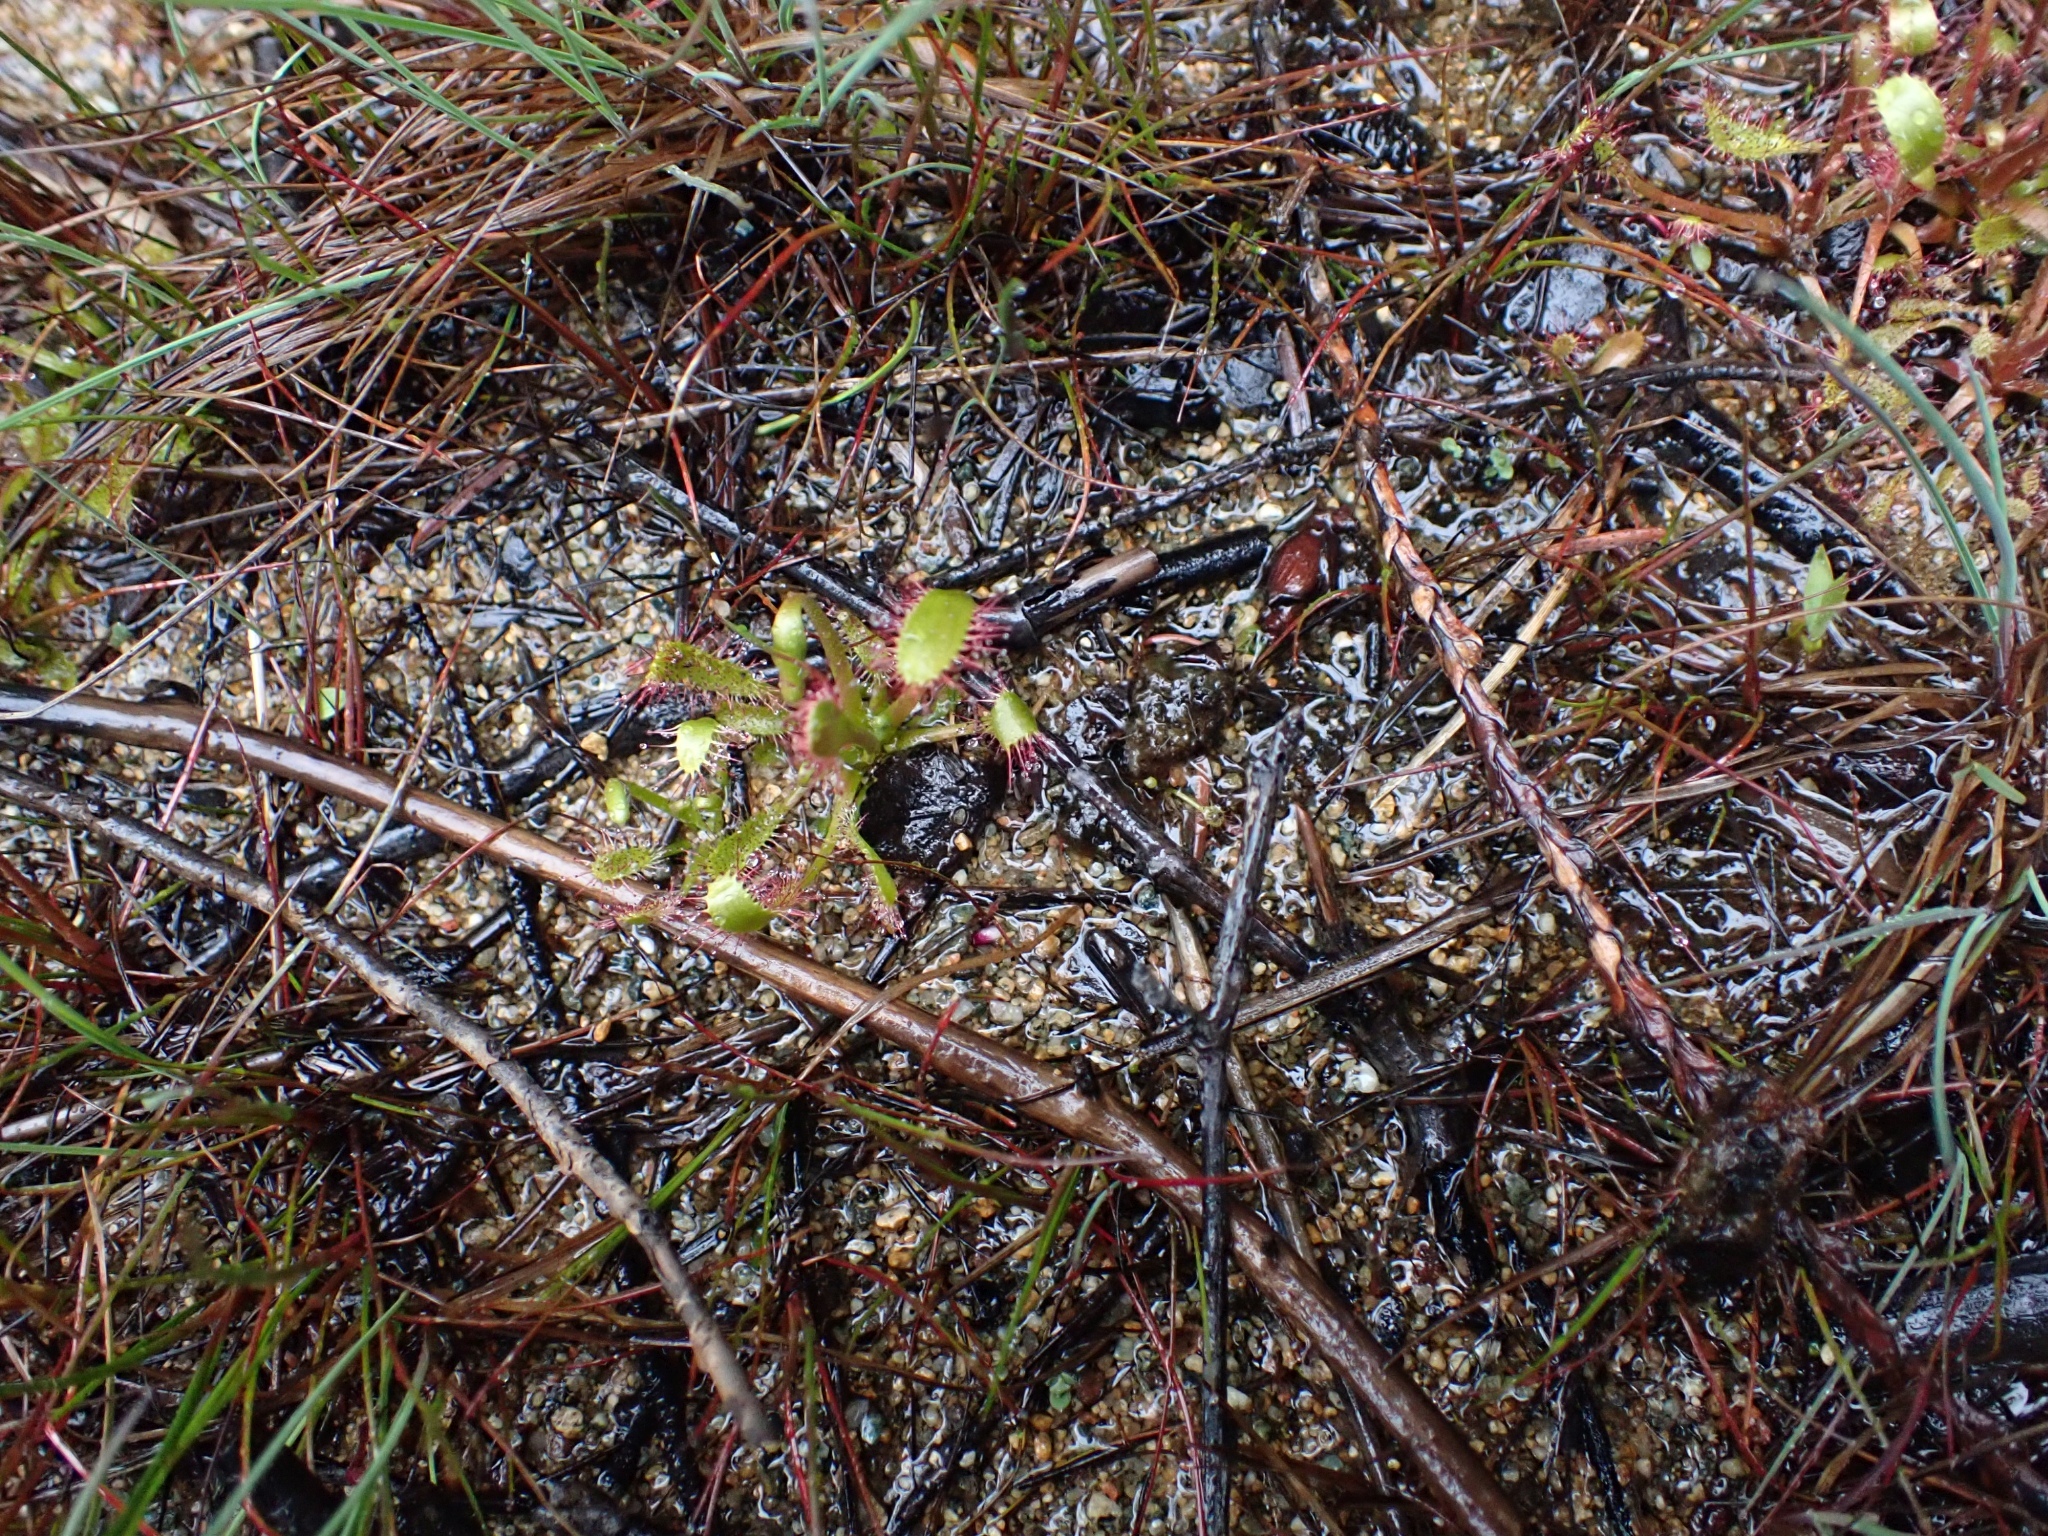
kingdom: Plantae
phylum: Tracheophyta
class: Magnoliopsida
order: Caryophyllales
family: Droseraceae
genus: Drosera
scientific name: Drosera anglica
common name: Great sundew
